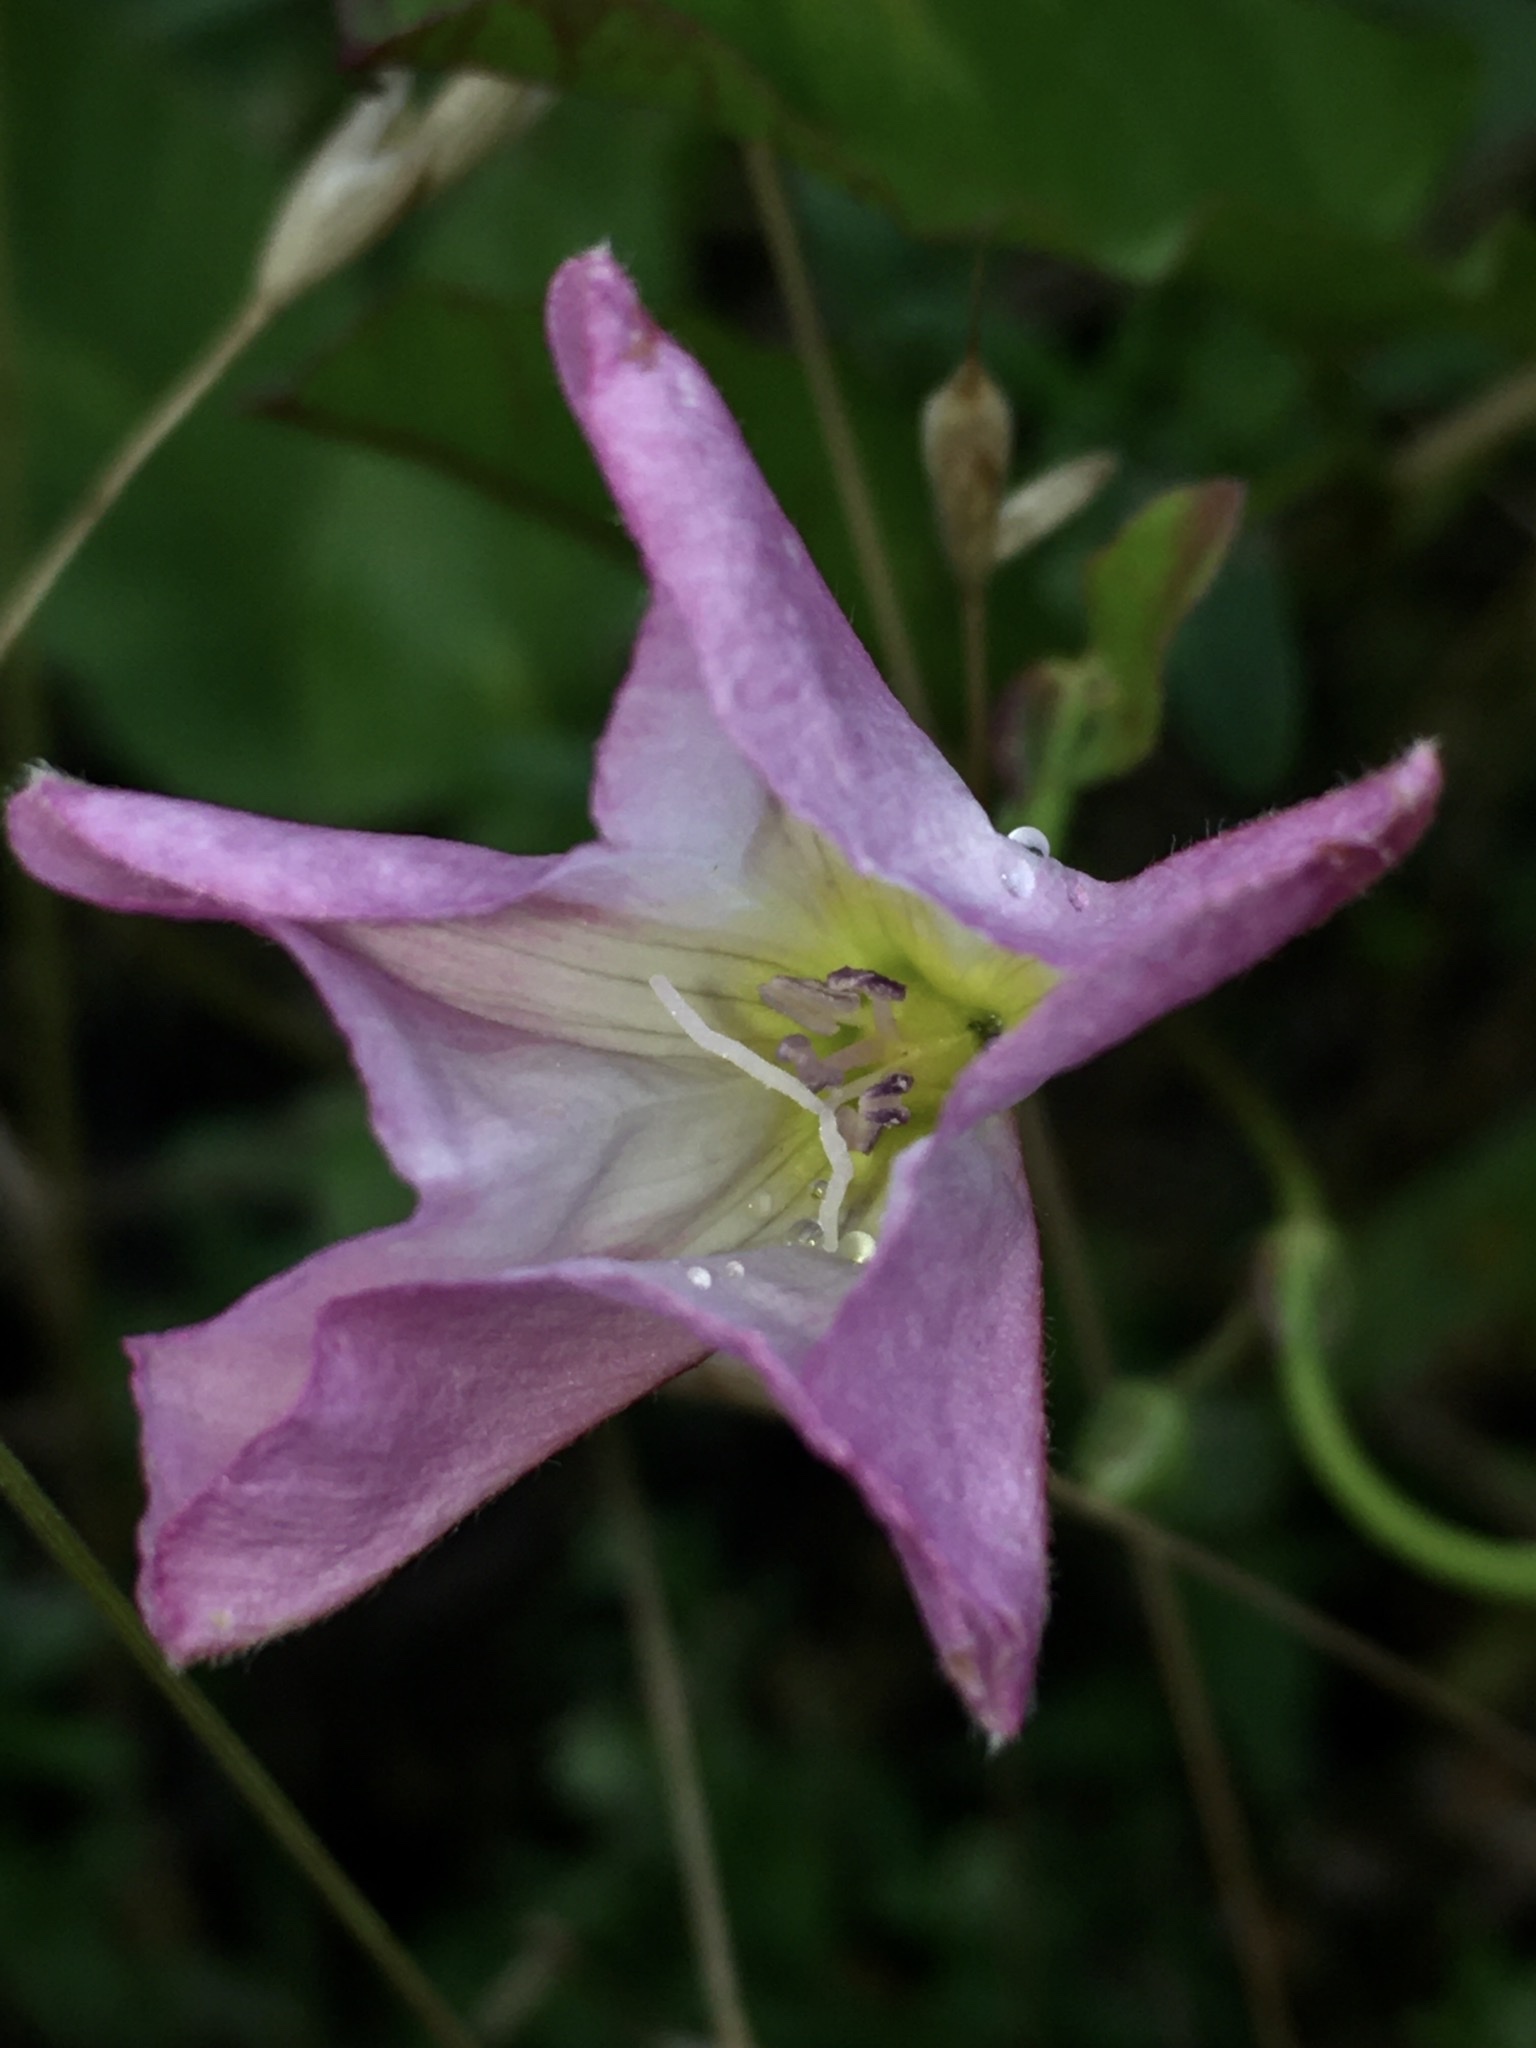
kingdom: Plantae
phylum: Tracheophyta
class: Magnoliopsida
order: Solanales
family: Convolvulaceae
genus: Convolvulus
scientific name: Convolvulus arvensis
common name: Field bindweed
